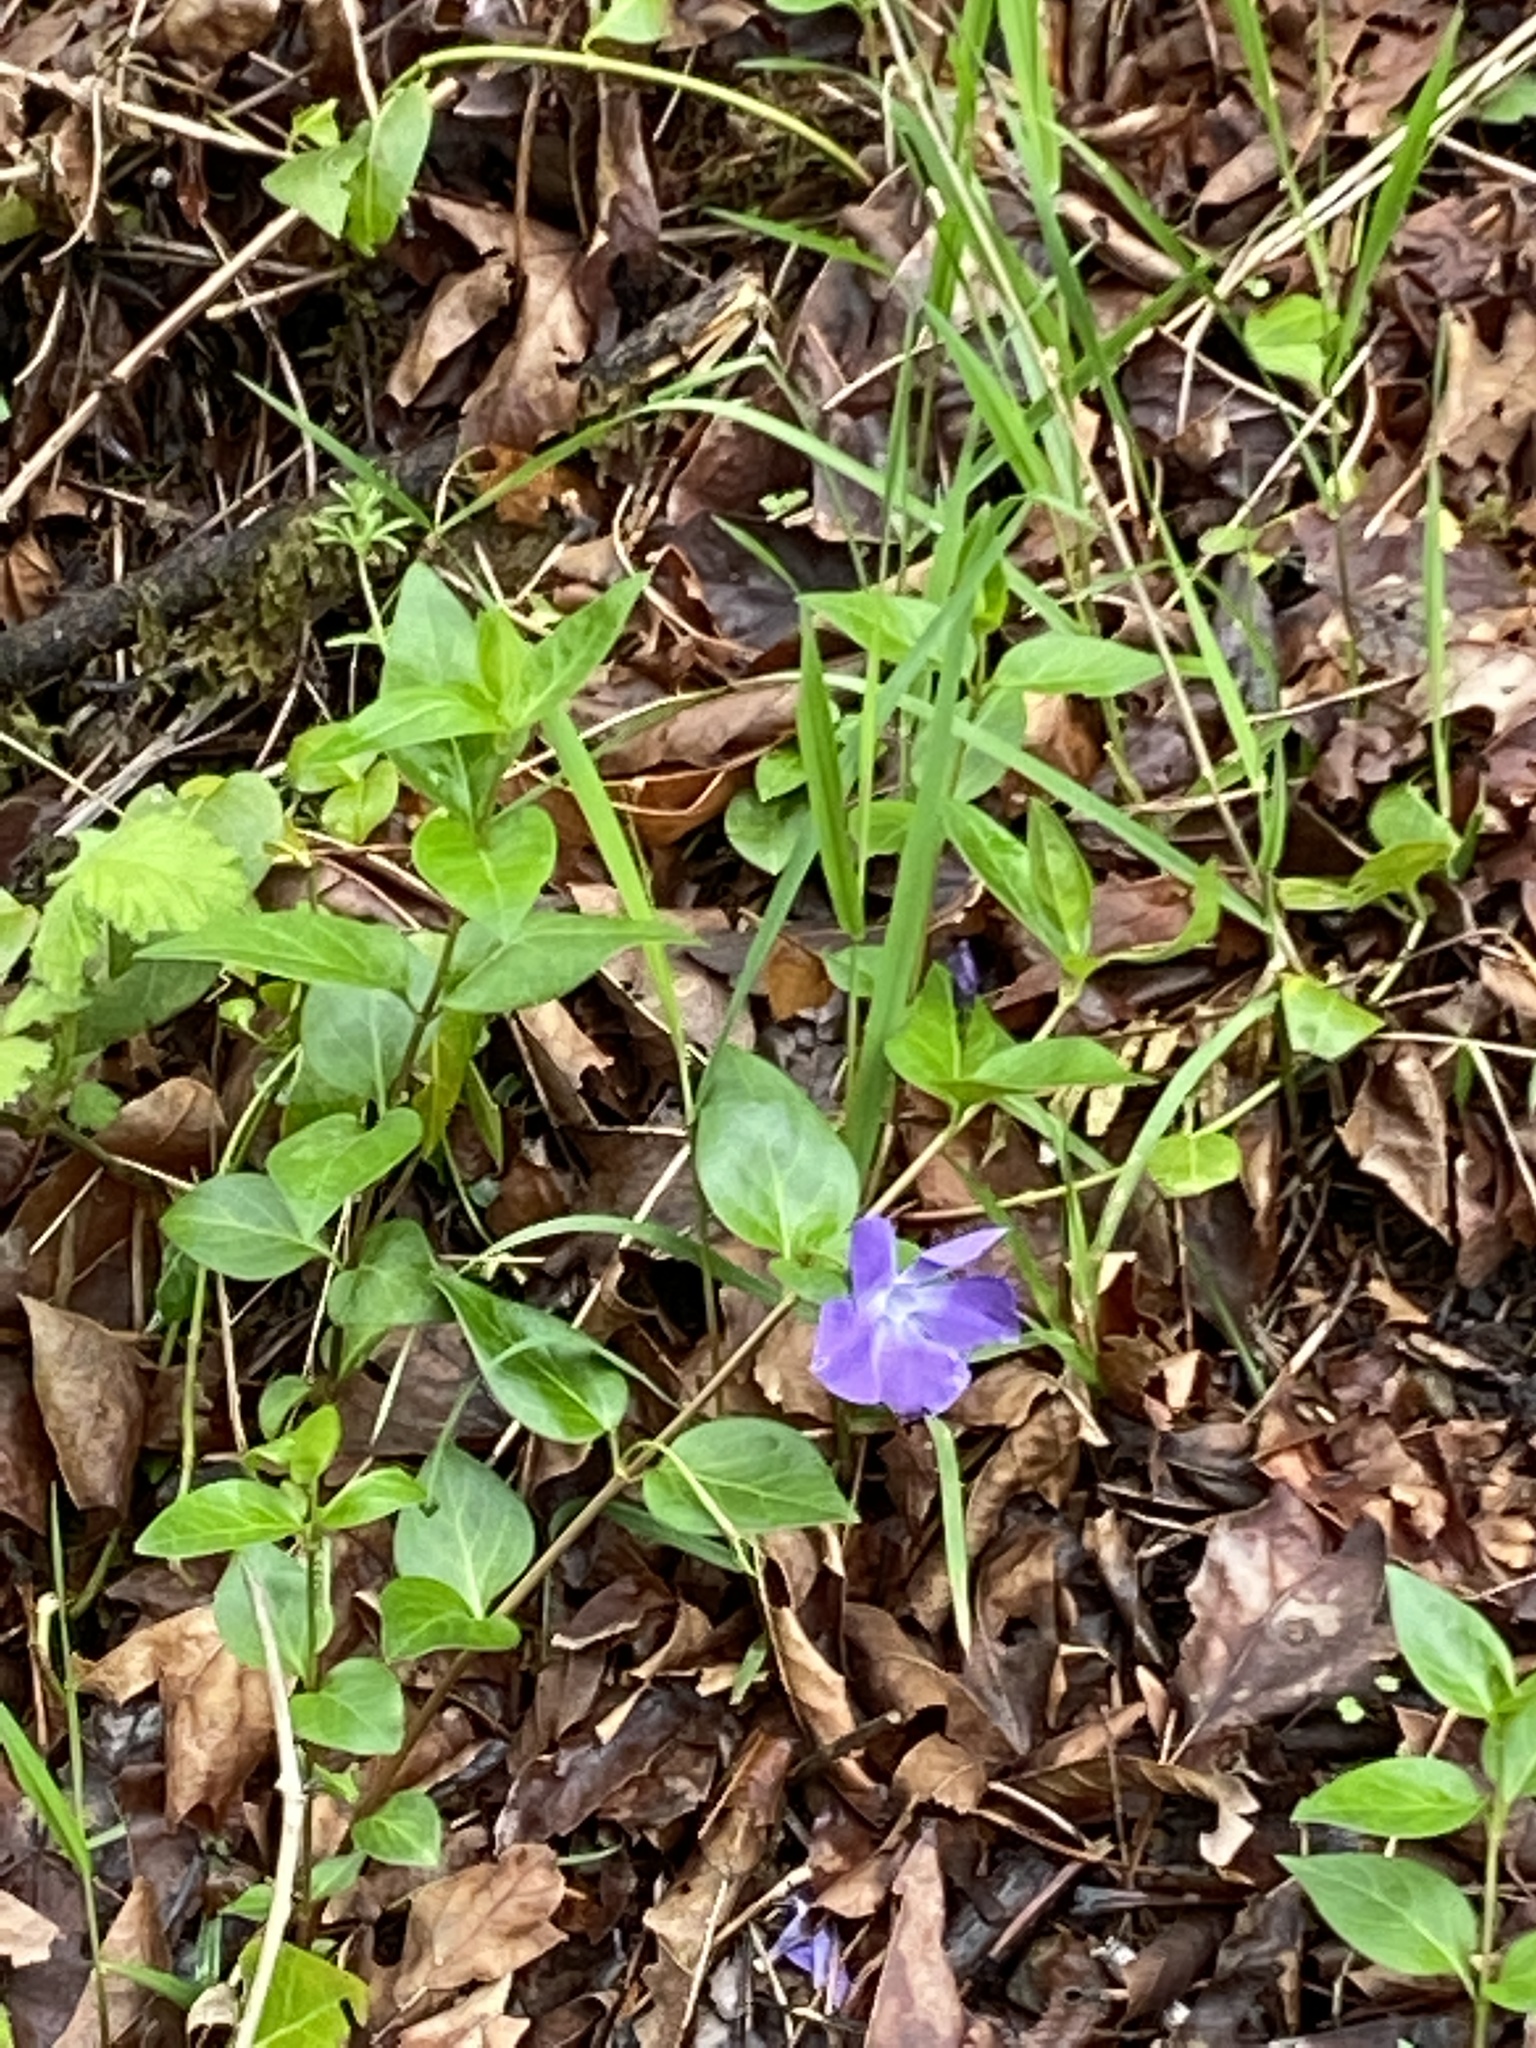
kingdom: Plantae
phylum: Tracheophyta
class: Magnoliopsida
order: Gentianales
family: Apocynaceae
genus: Vinca
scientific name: Vinca major
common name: Greater periwinkle
